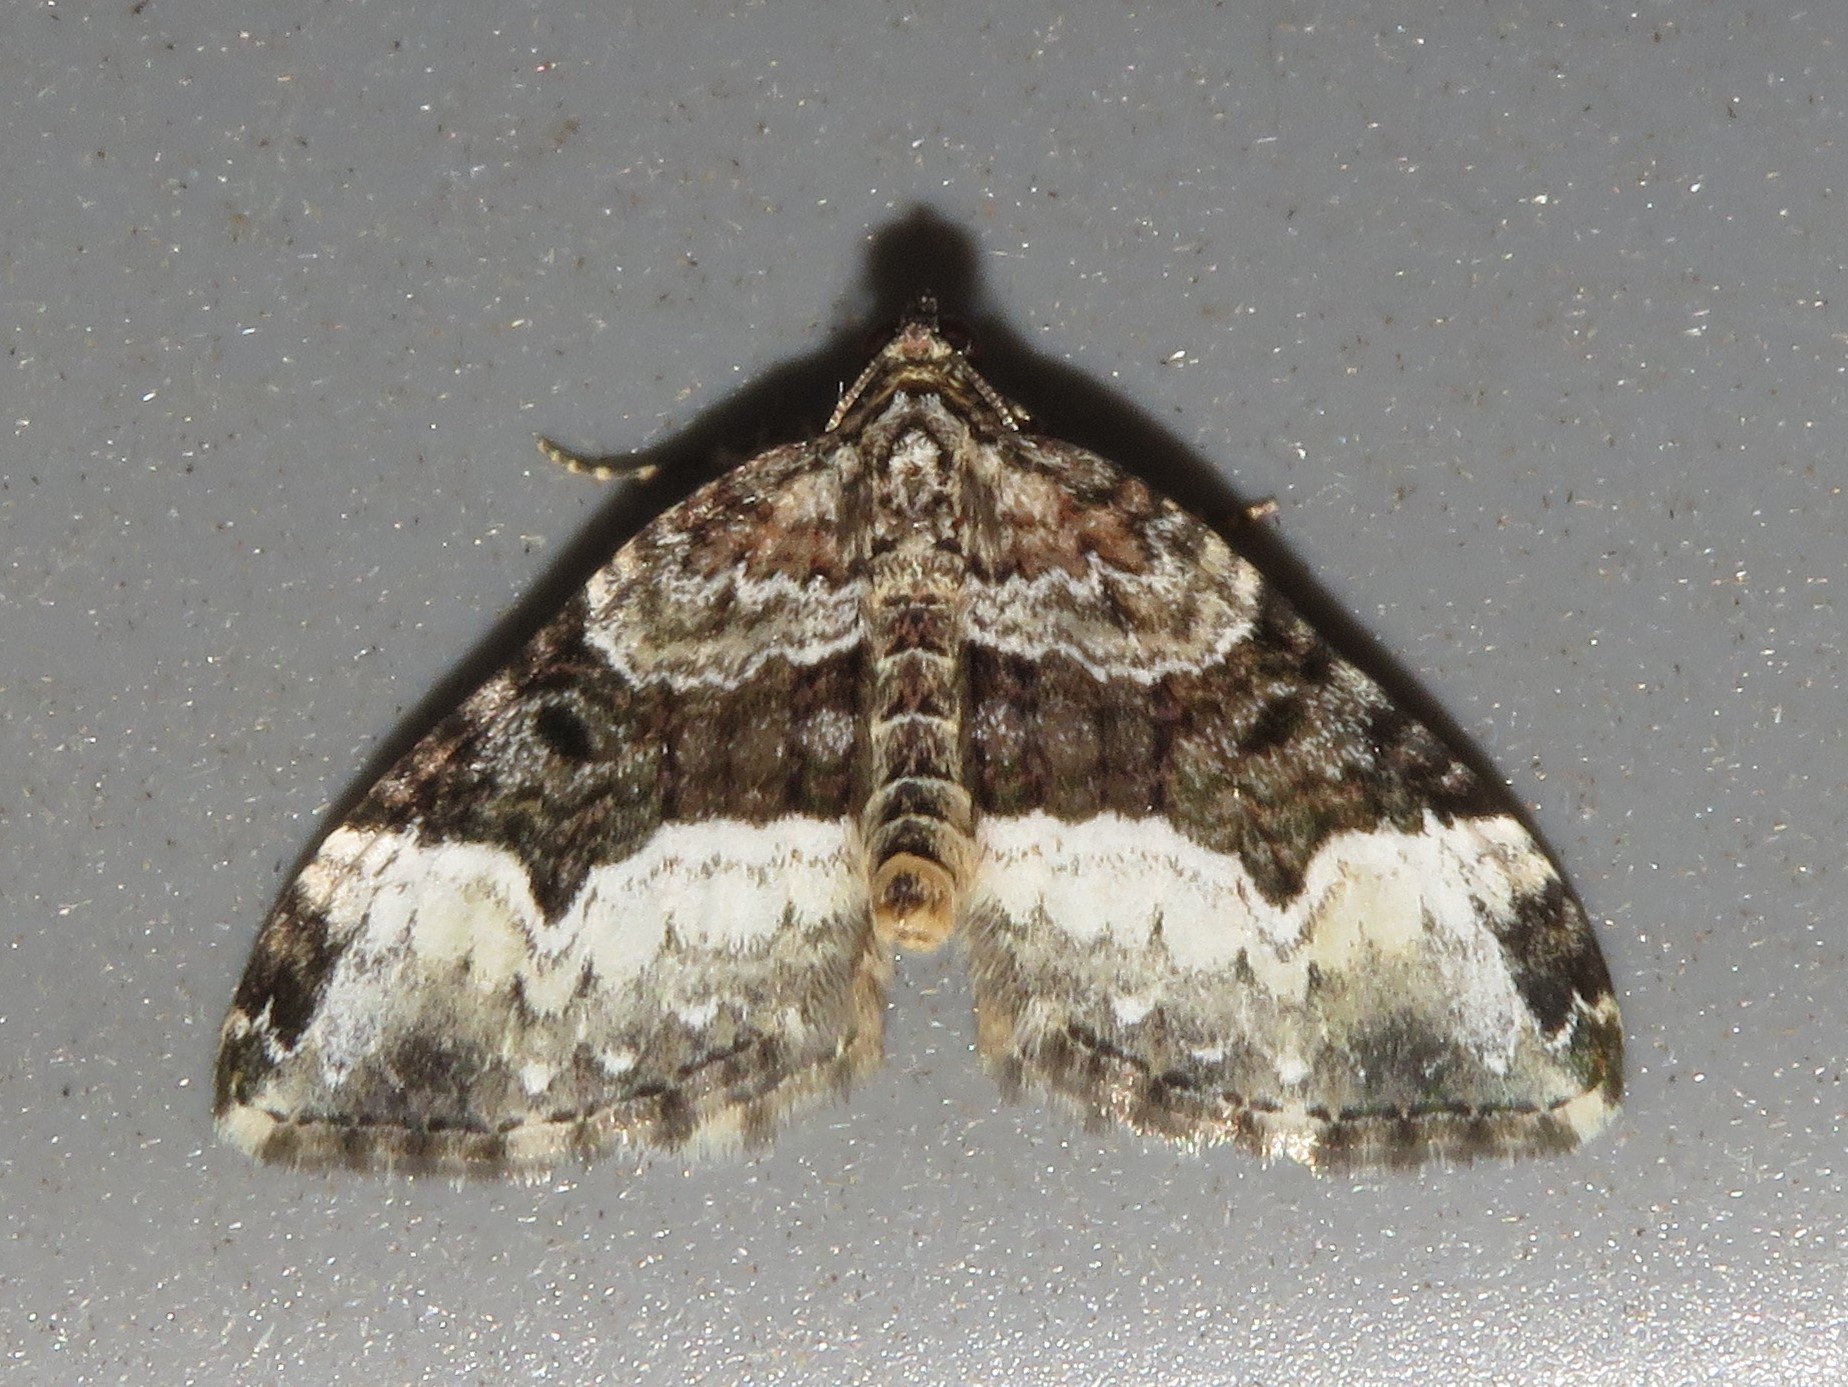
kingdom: Animalia
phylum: Arthropoda
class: Insecta
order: Lepidoptera
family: Geometridae
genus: Euphyia
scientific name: Euphyia intermediata
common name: Sharp-angled carpet
